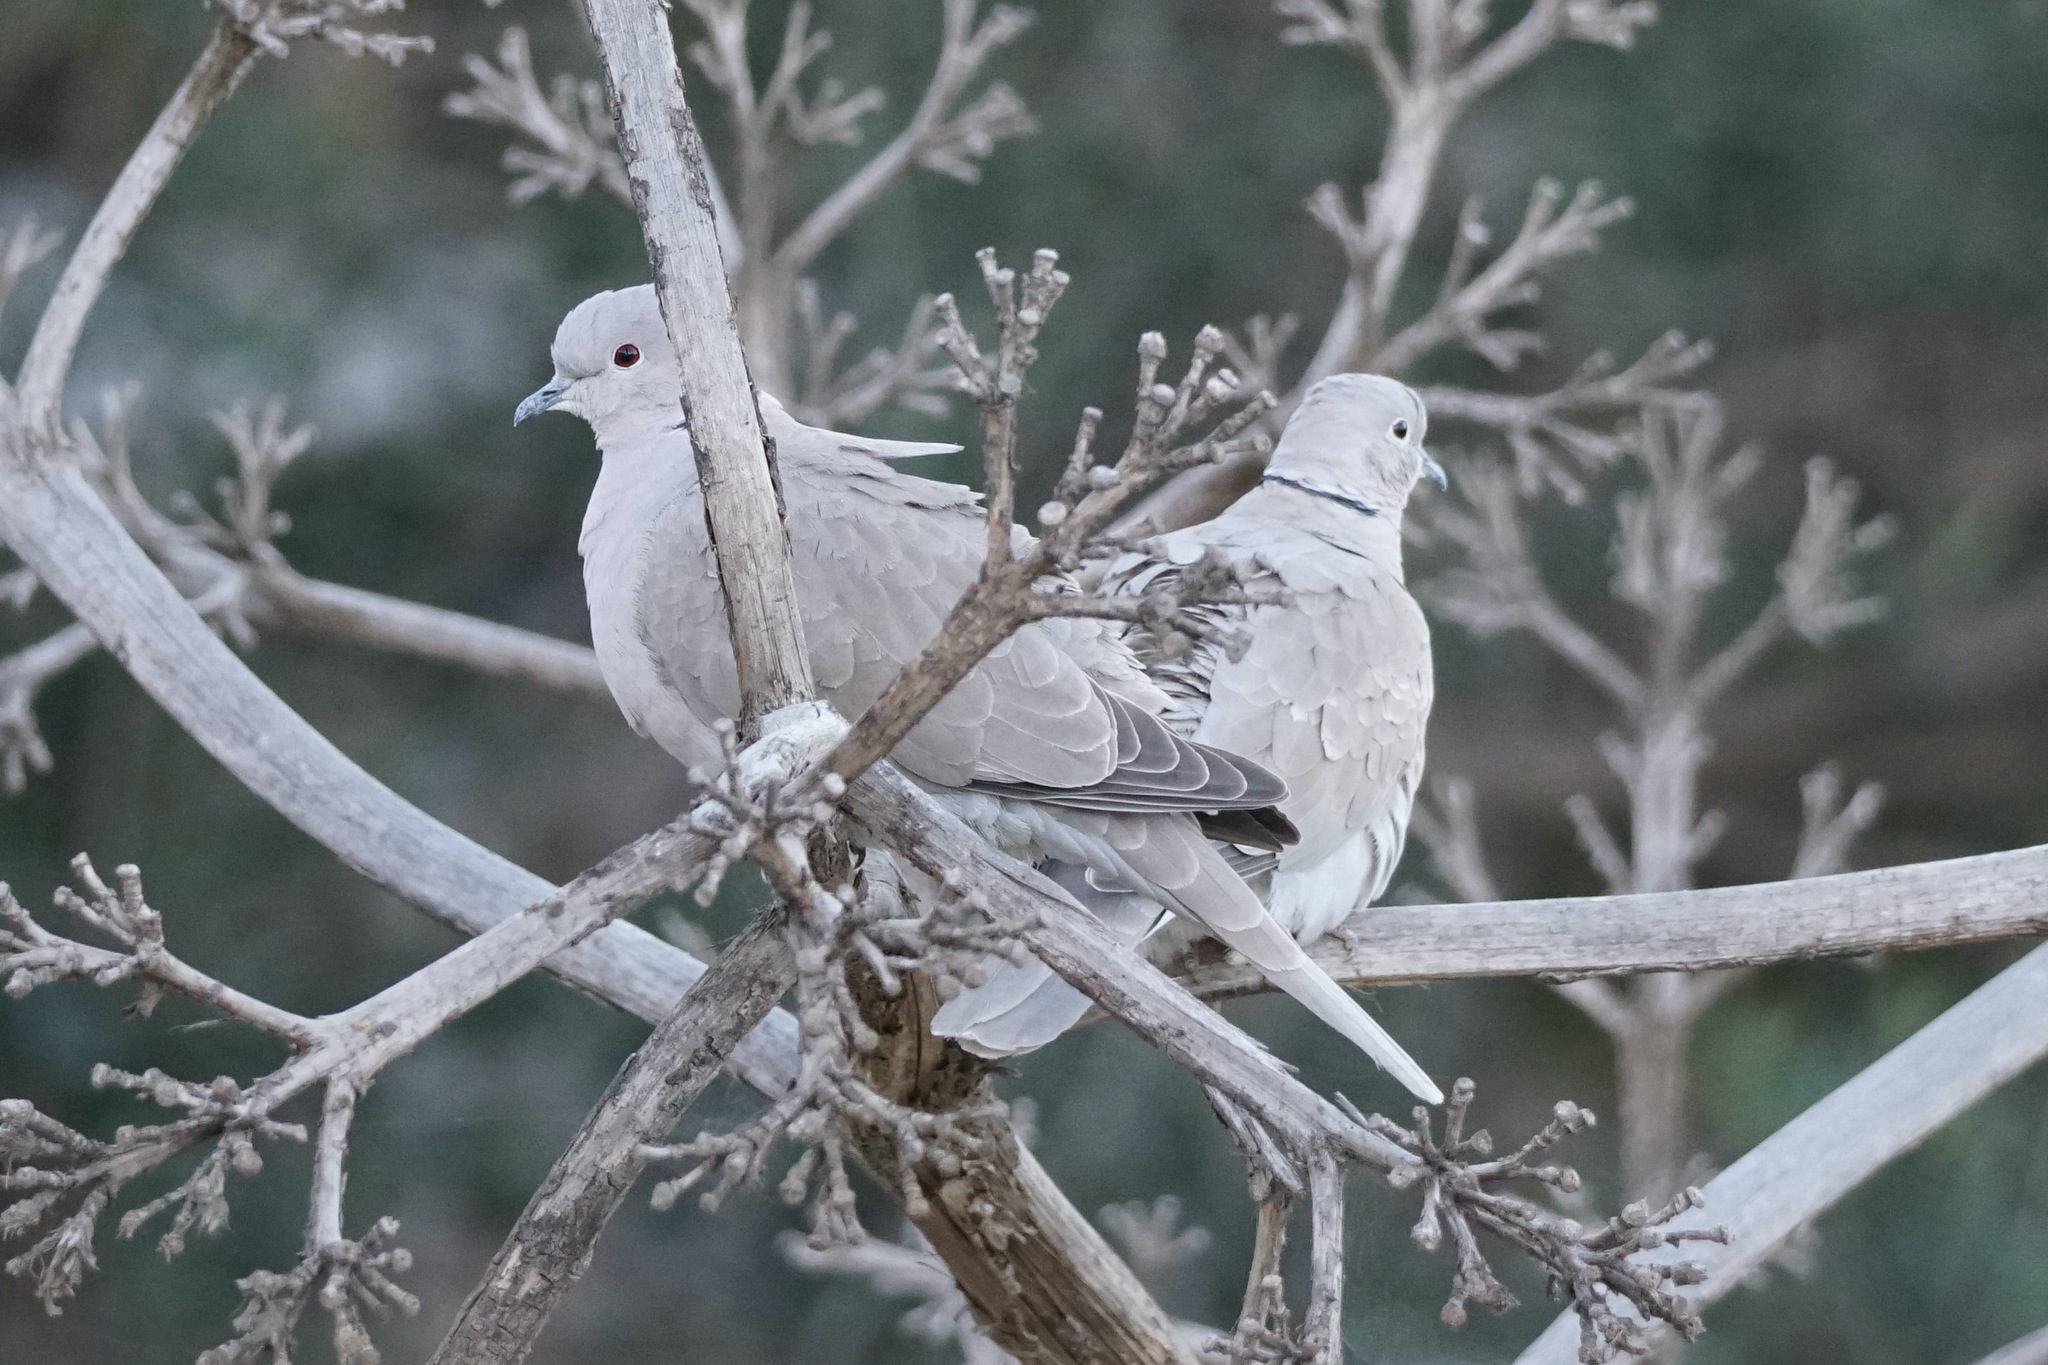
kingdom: Animalia
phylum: Chordata
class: Aves
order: Columbiformes
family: Columbidae
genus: Streptopelia
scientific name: Streptopelia decaocto
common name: Eurasian collared dove
